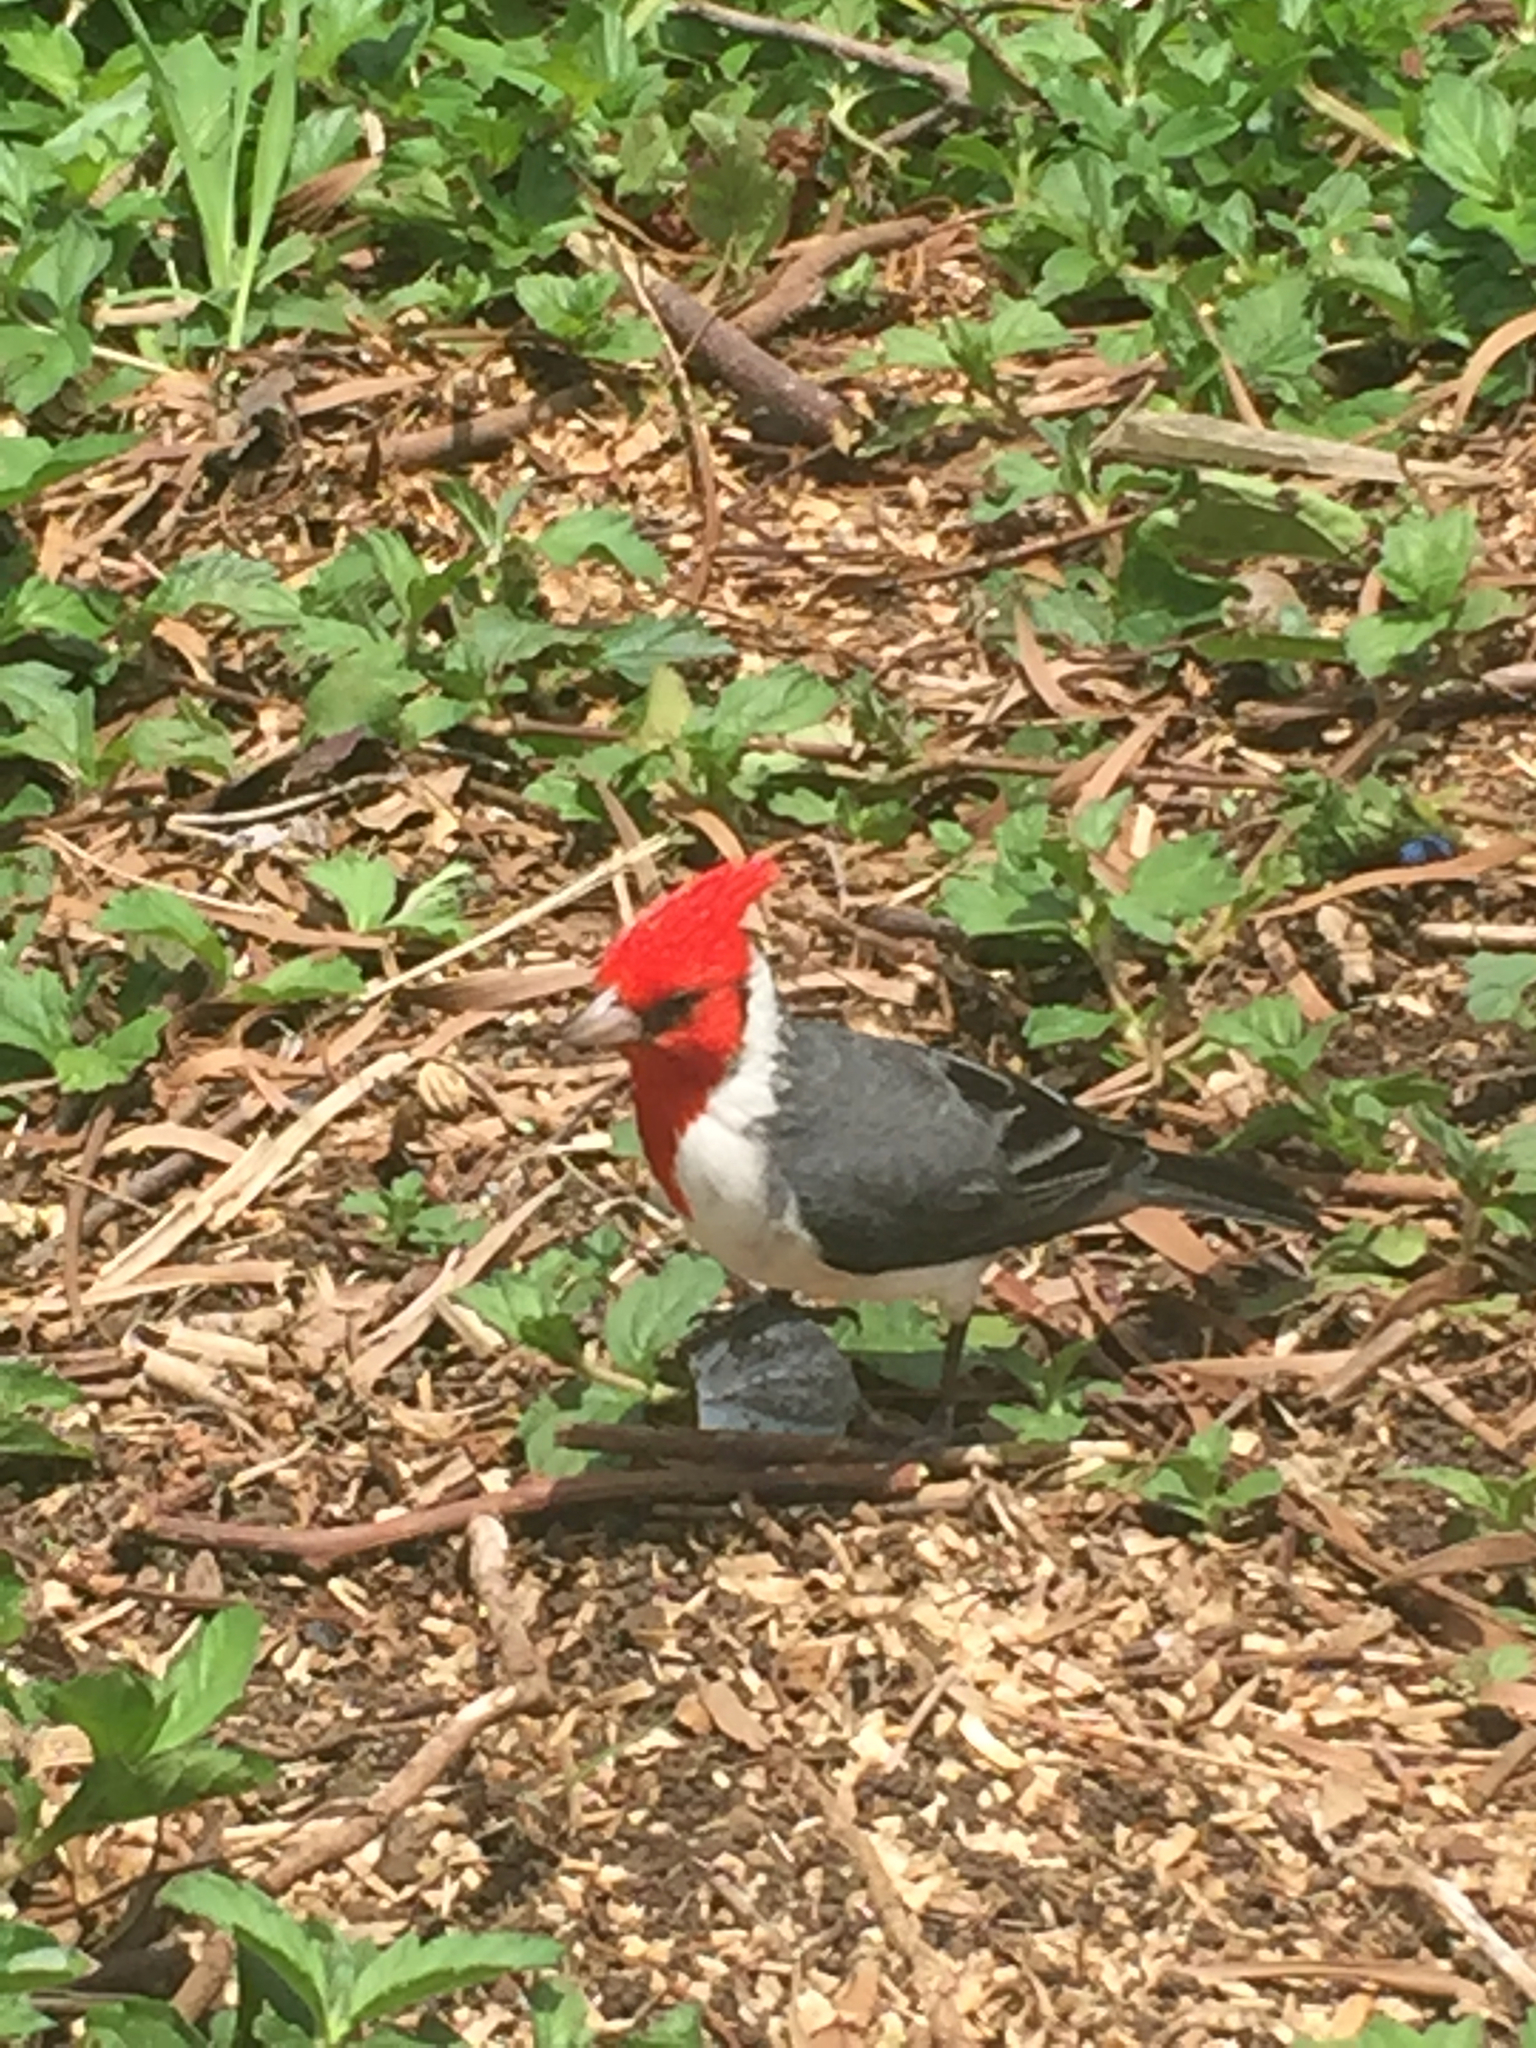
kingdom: Animalia
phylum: Chordata
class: Aves
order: Passeriformes
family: Thraupidae
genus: Paroaria
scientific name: Paroaria coronata
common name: Red-crested cardinal
